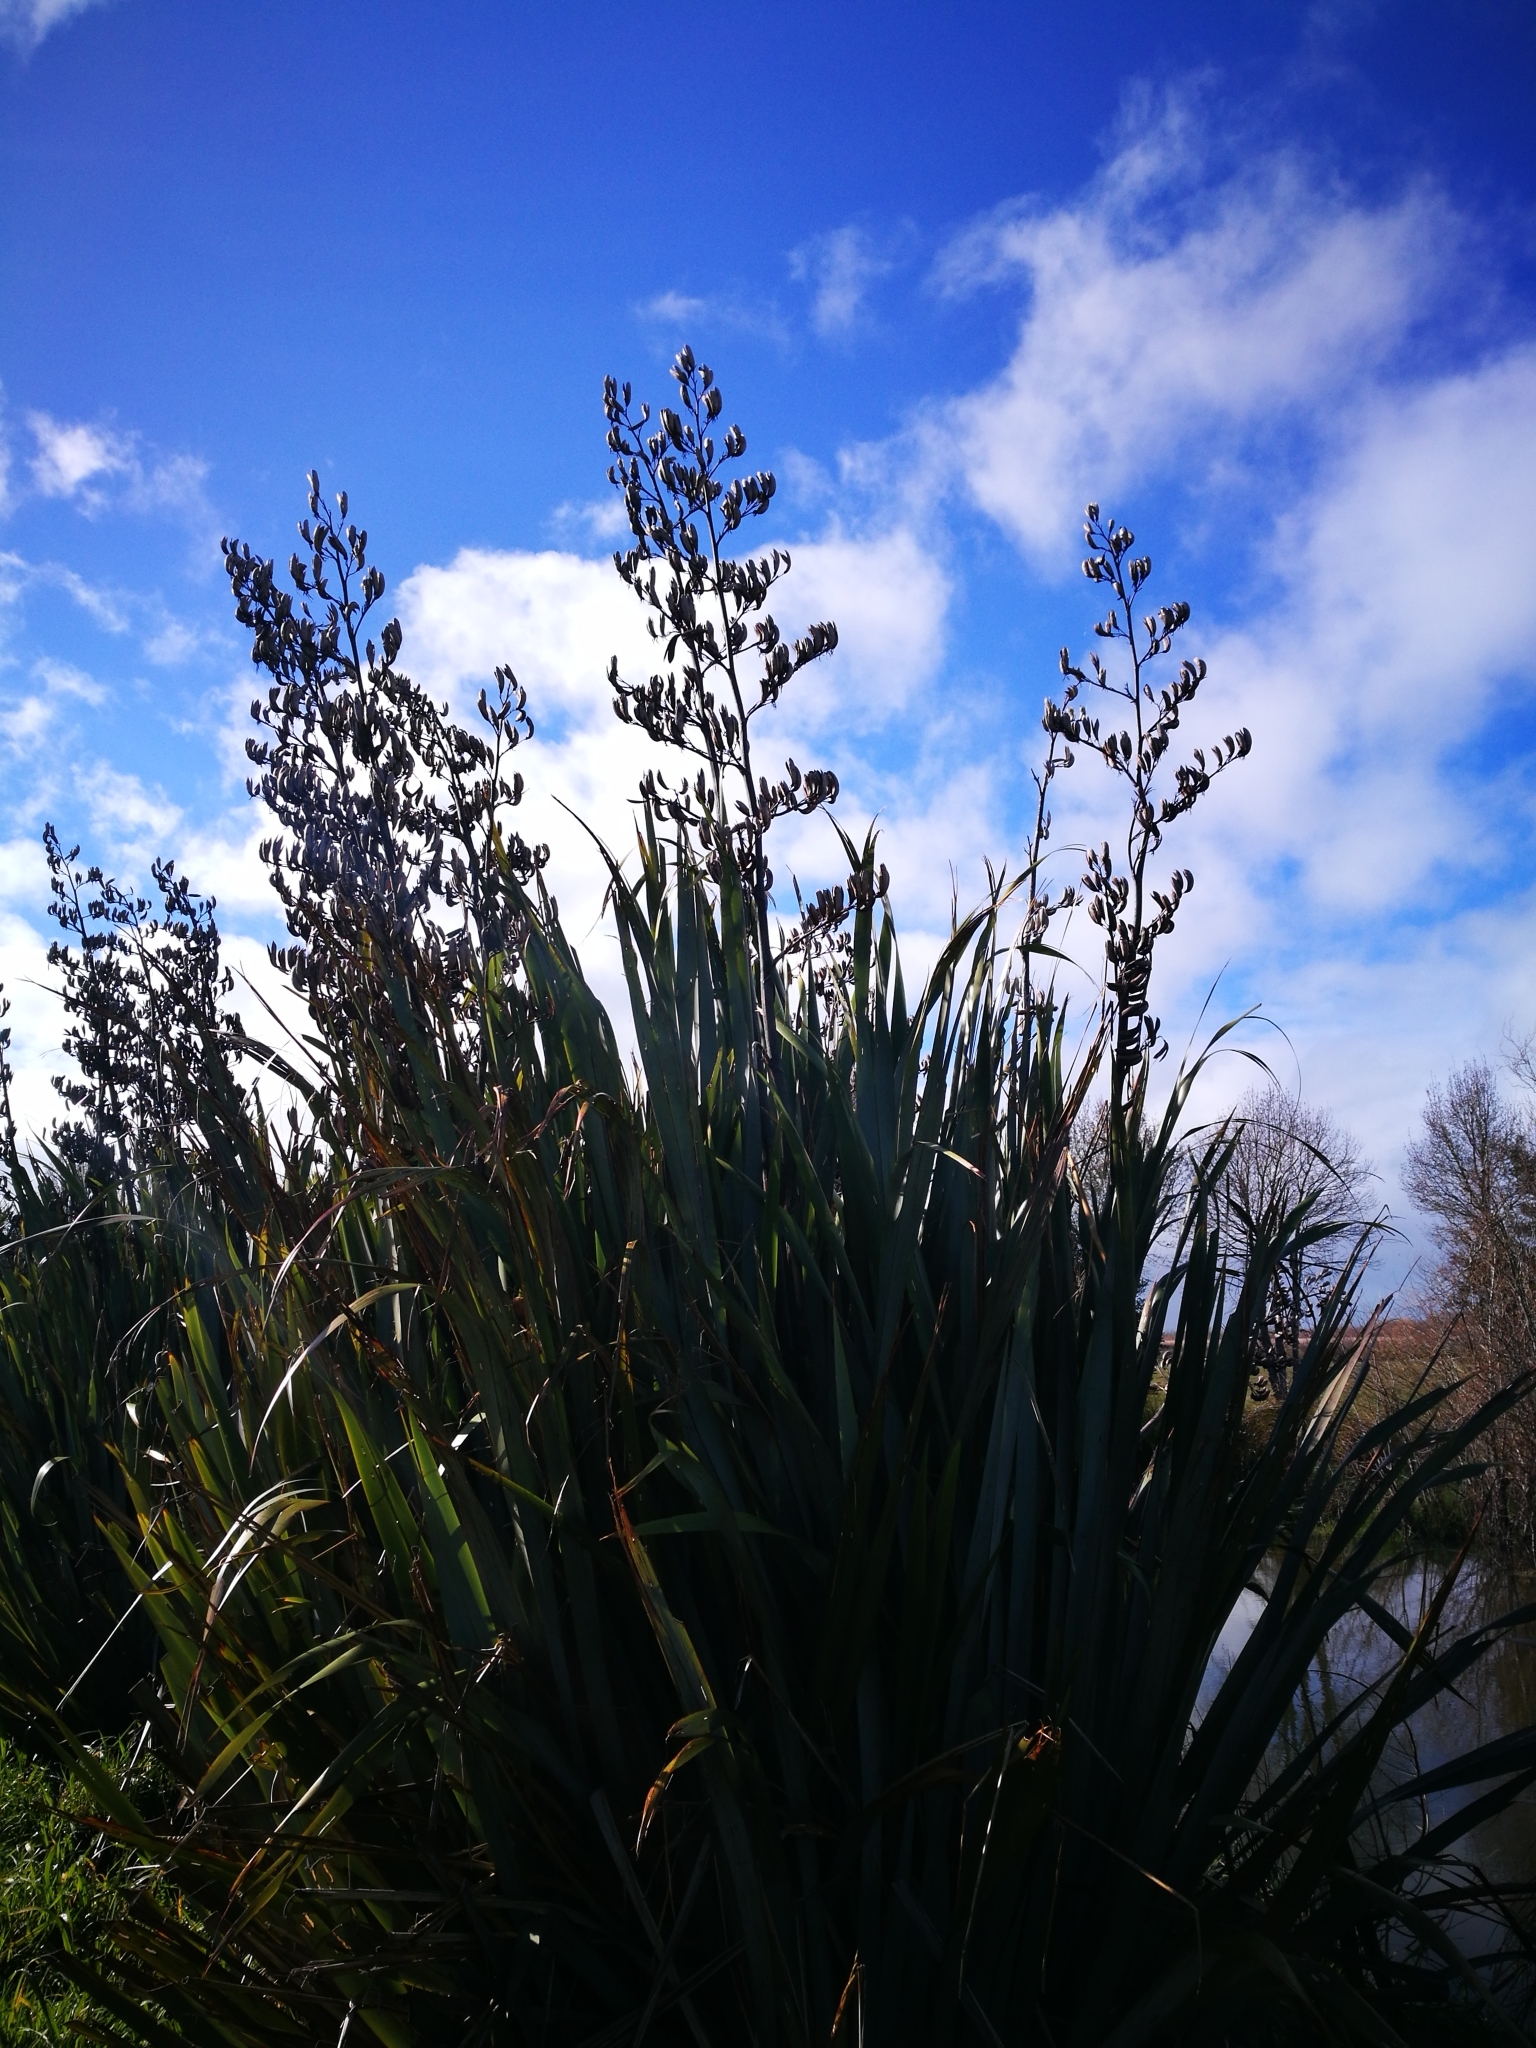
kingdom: Plantae
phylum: Tracheophyta
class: Liliopsida
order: Asparagales
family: Asphodelaceae
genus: Phormium
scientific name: Phormium tenax
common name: New zealand flax
